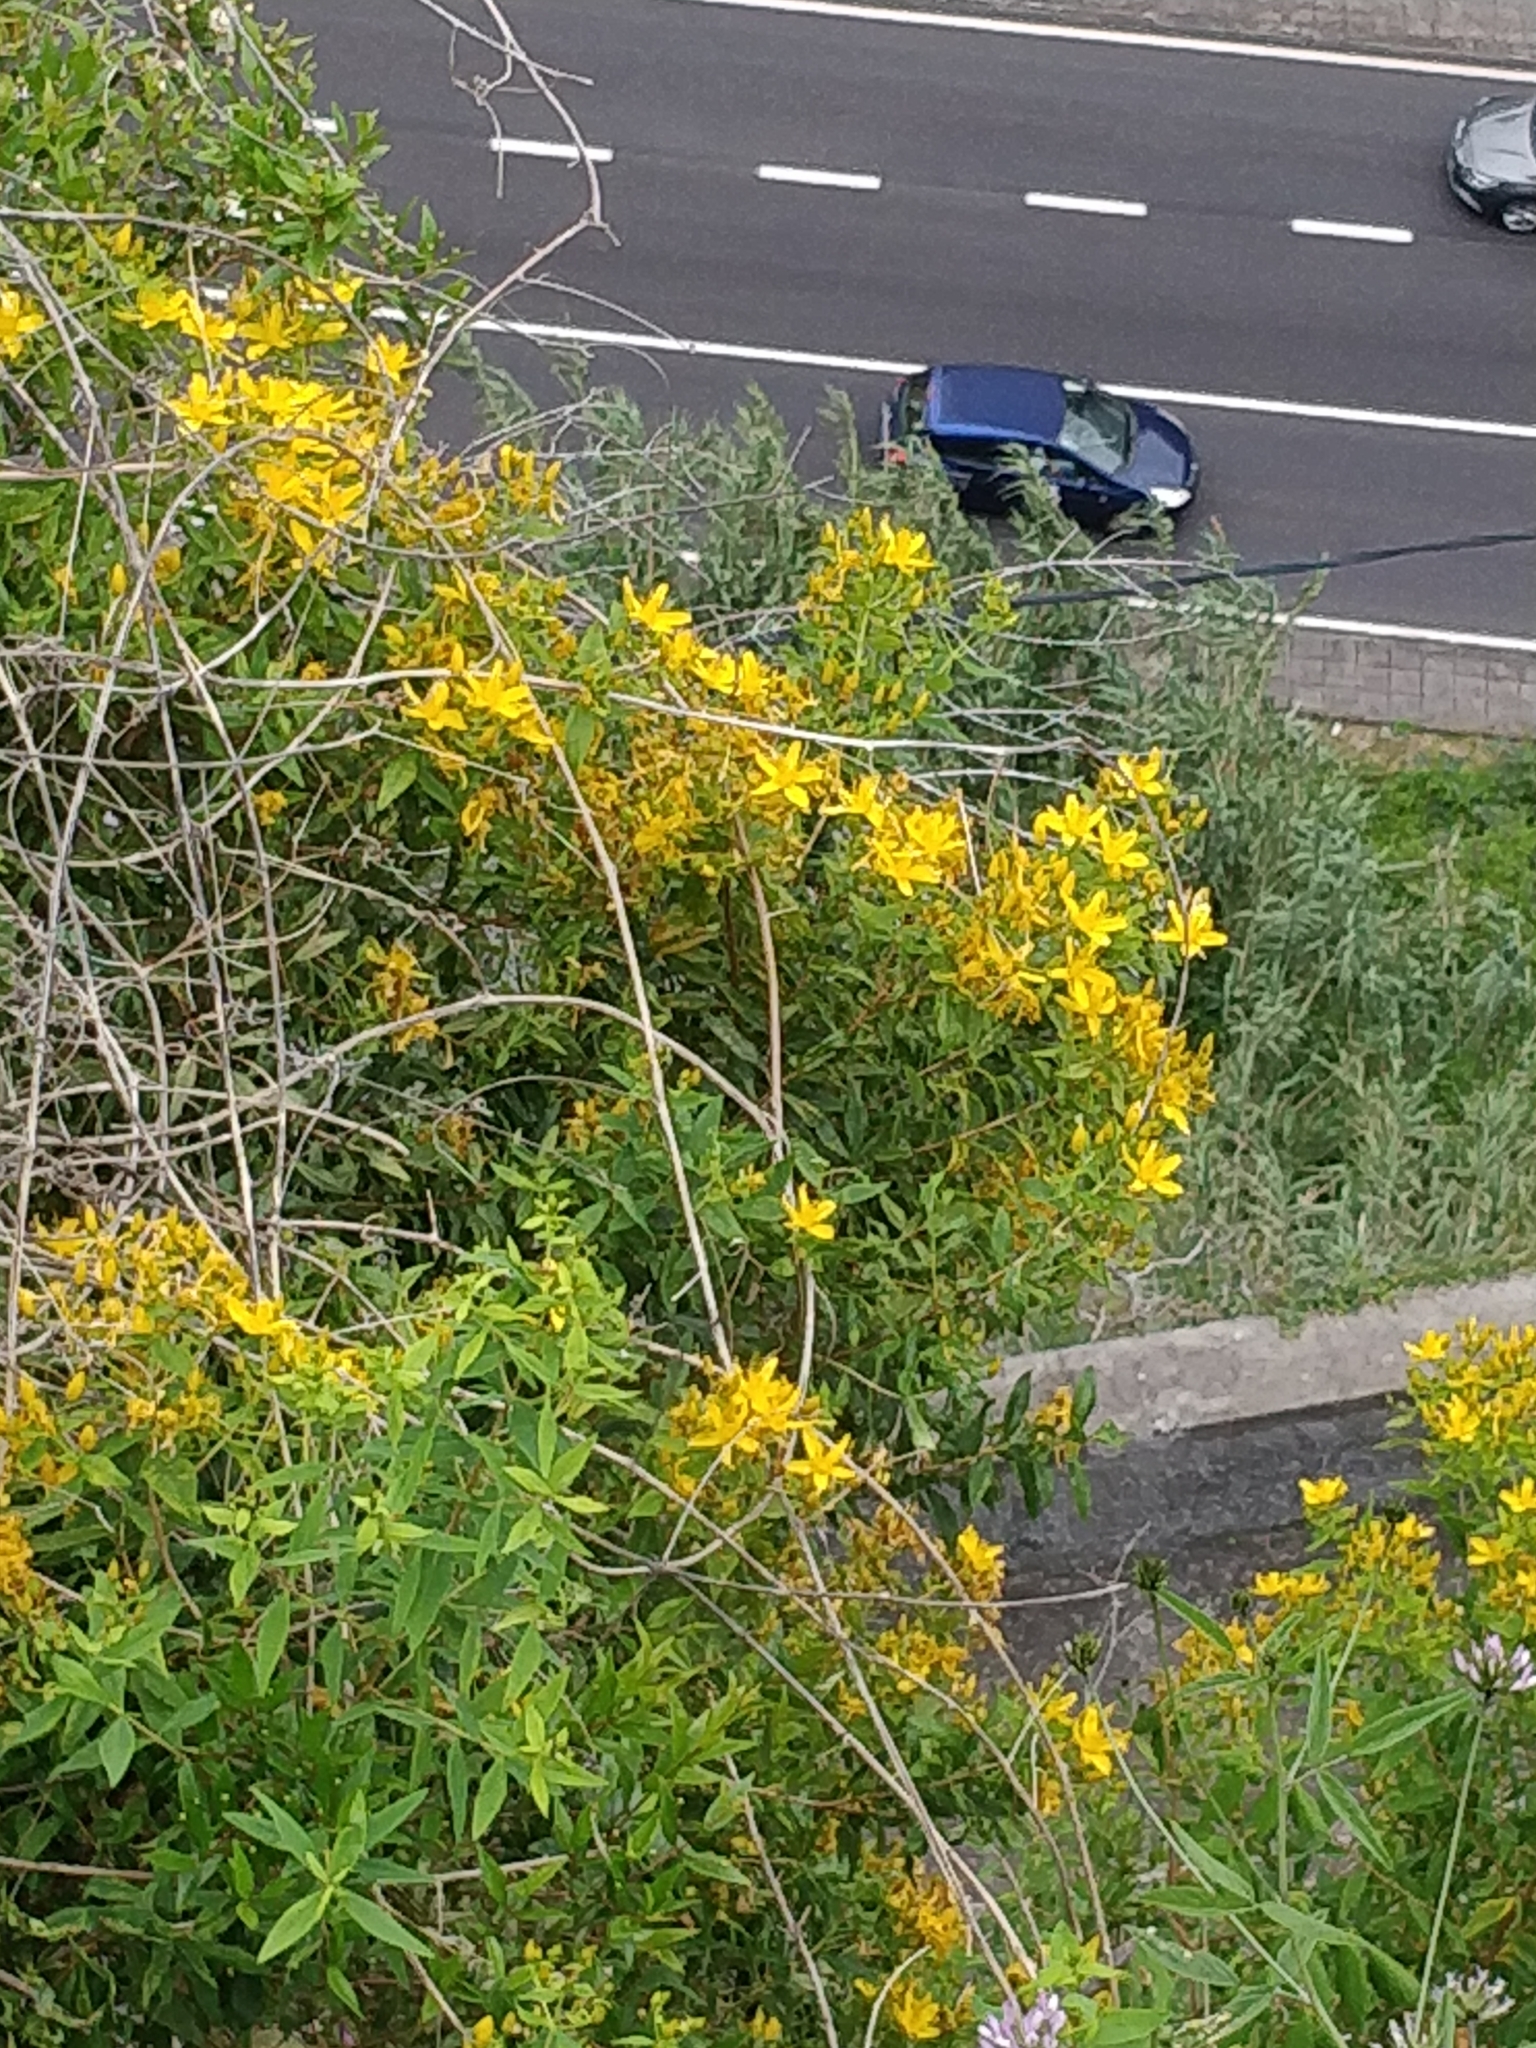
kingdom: Plantae
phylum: Tracheophyta
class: Magnoliopsida
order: Malpighiales
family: Hypericaceae
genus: Hypericum
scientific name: Hypericum canariense
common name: Canary island st. johnswort
